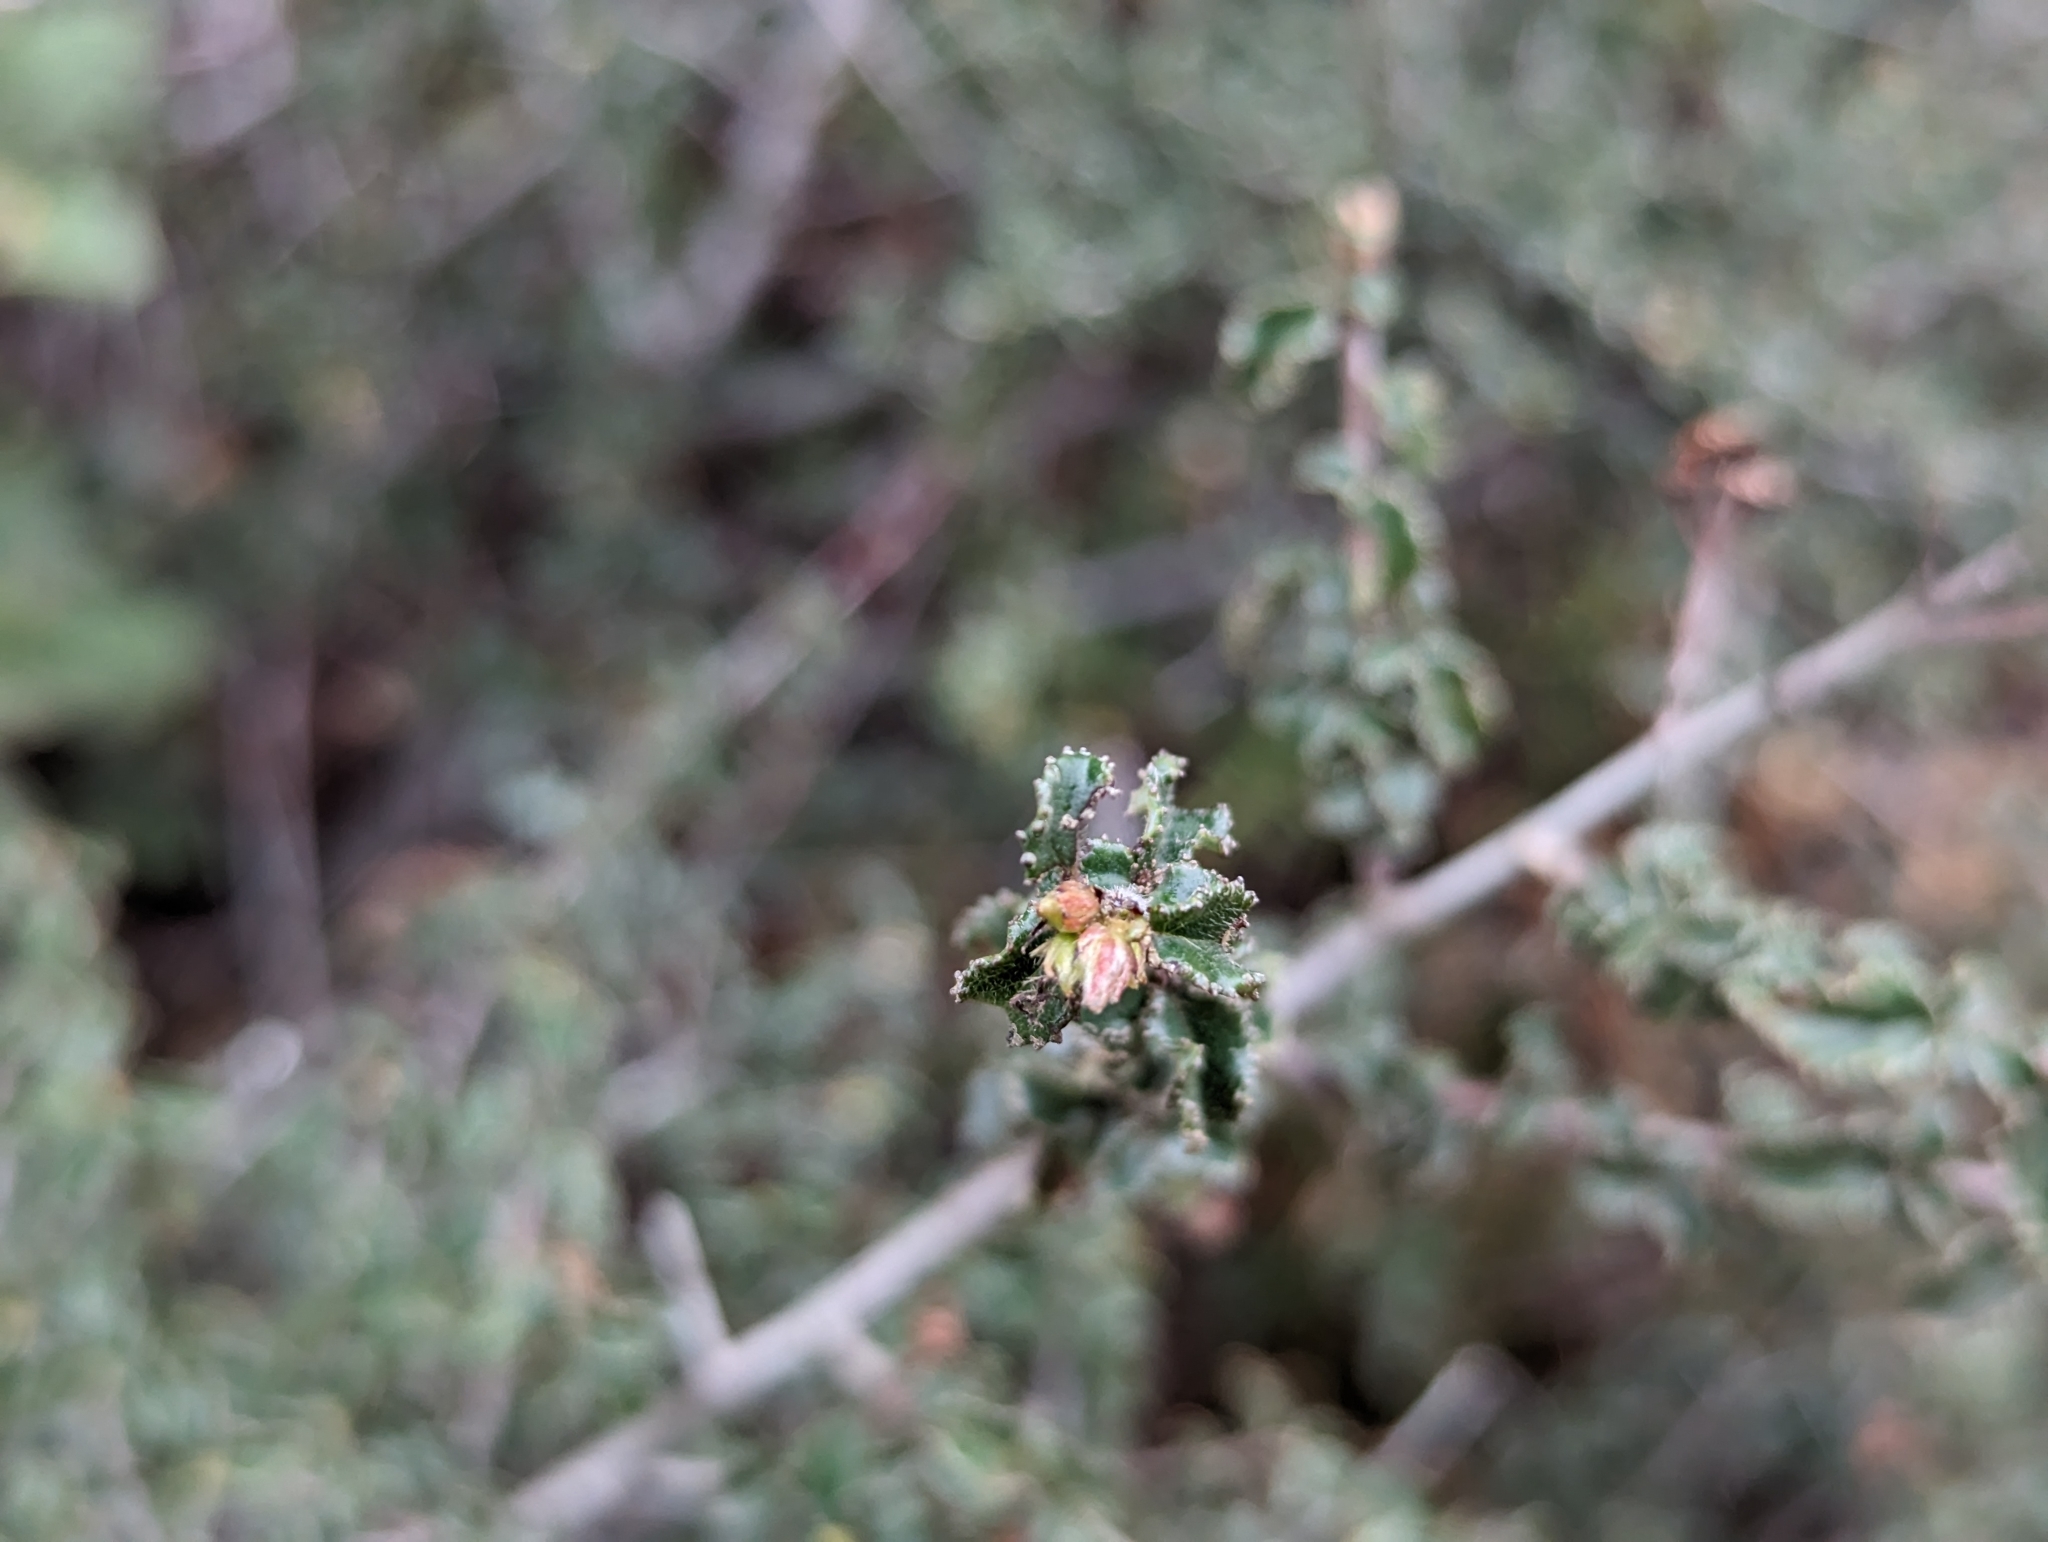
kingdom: Plantae
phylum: Tracheophyta
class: Magnoliopsida
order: Rosales
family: Rhamnaceae
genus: Ceanothus
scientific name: Ceanothus foliosus
